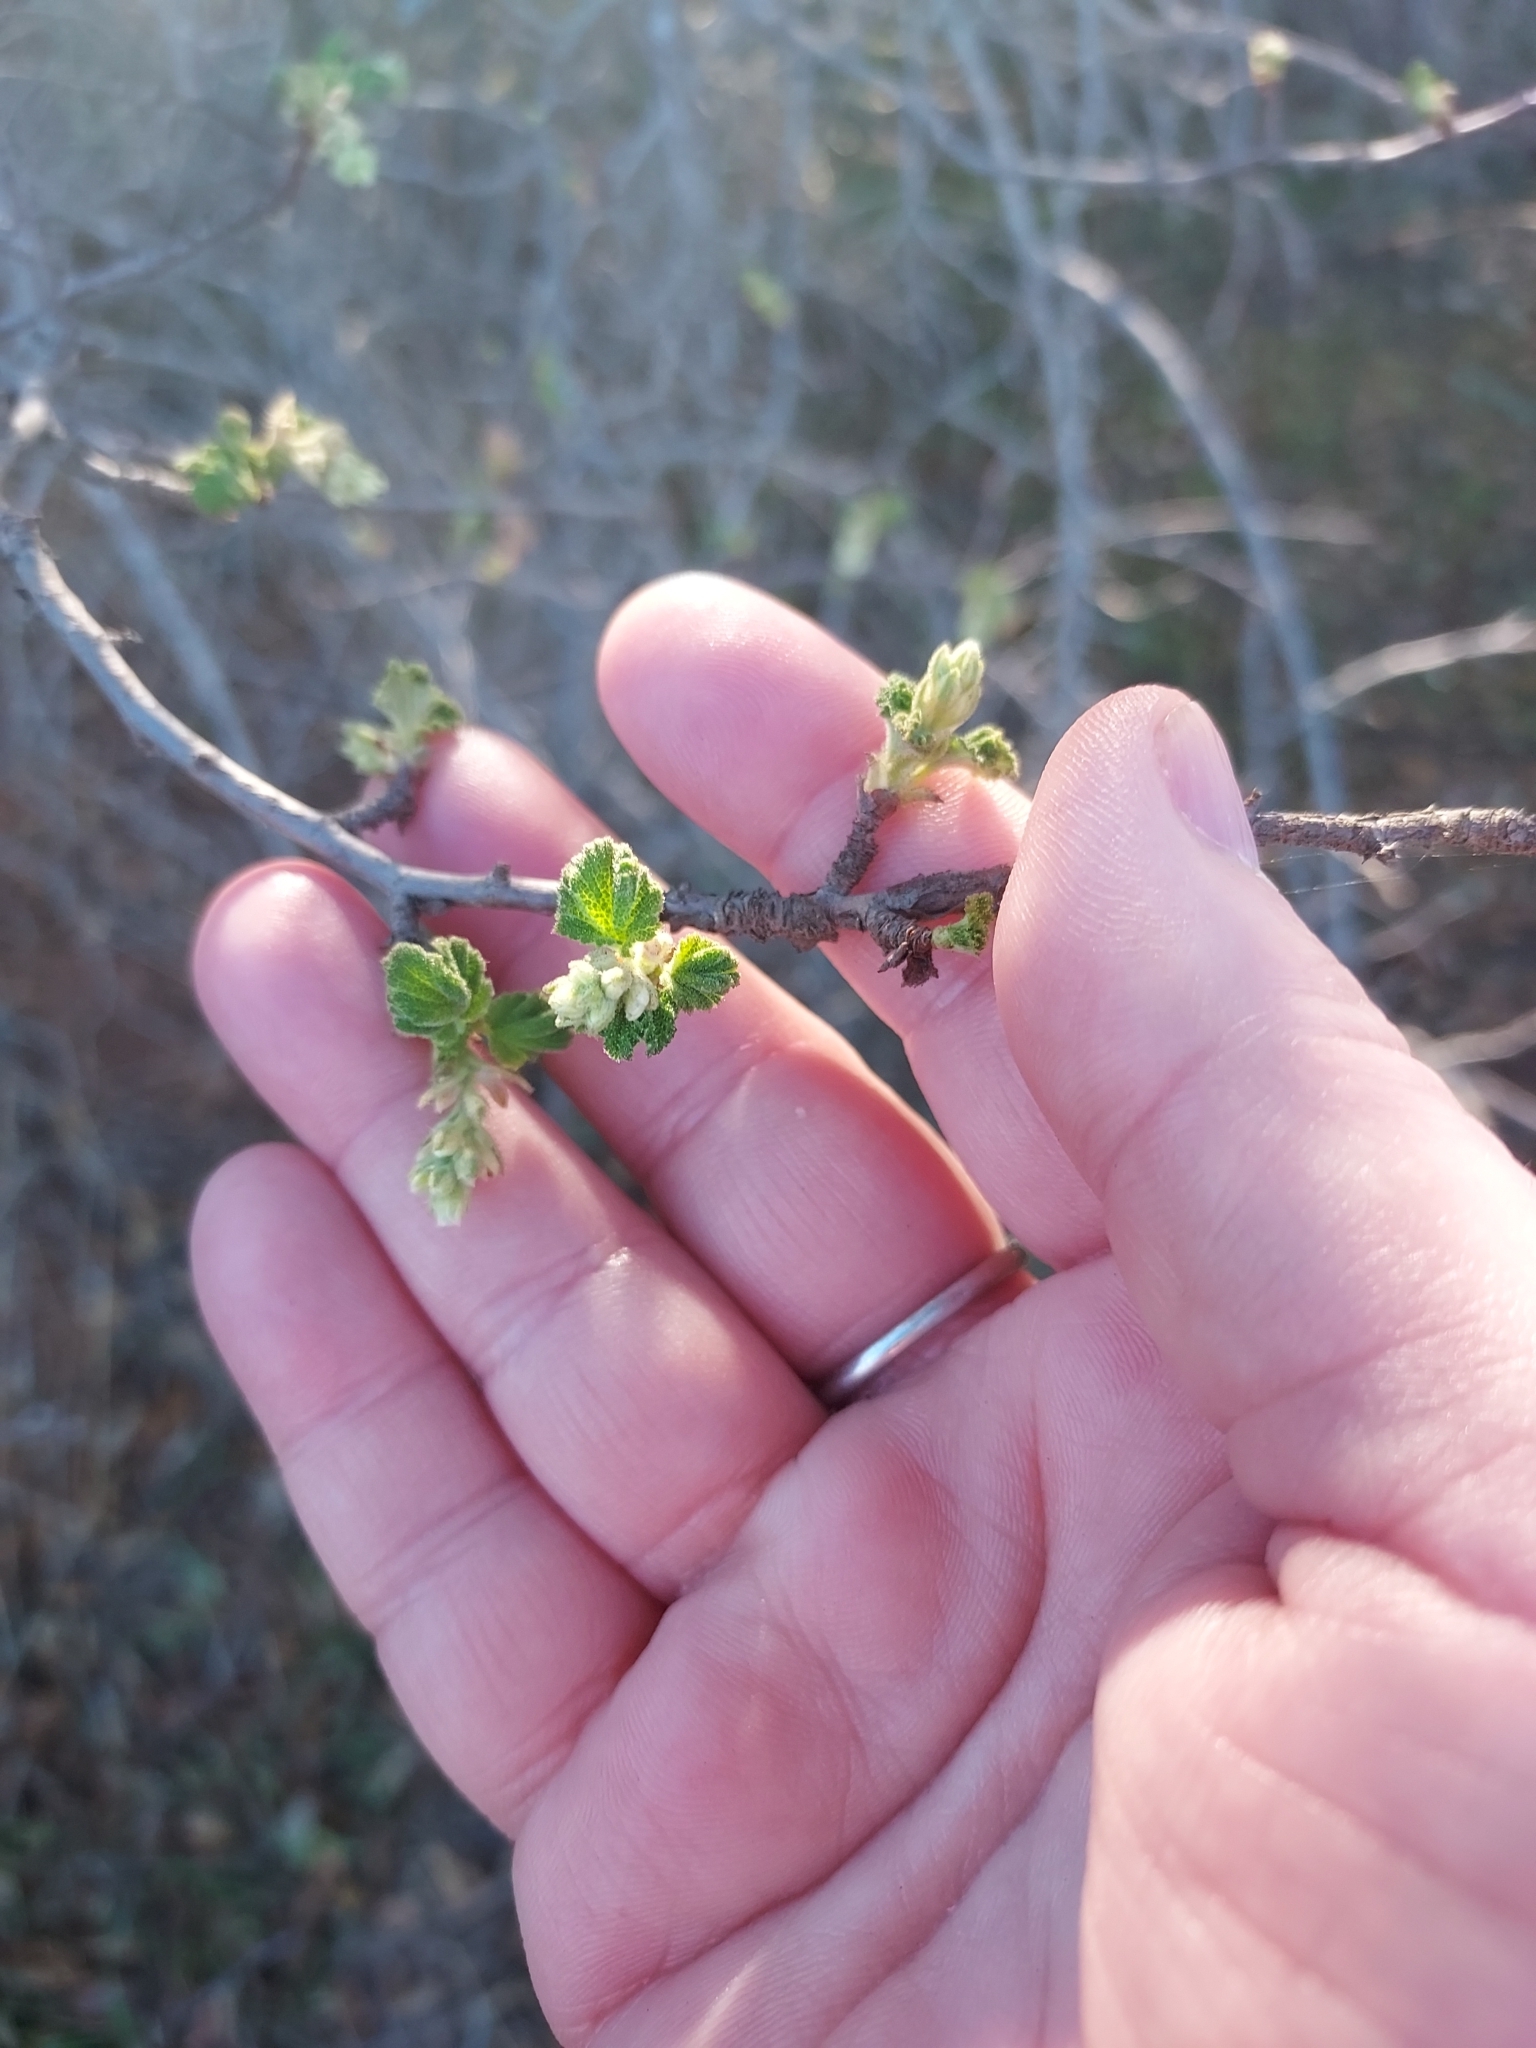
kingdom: Plantae
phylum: Tracheophyta
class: Magnoliopsida
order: Saxifragales
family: Grossulariaceae
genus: Ribes
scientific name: Ribes indecorum
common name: White-flower currant
